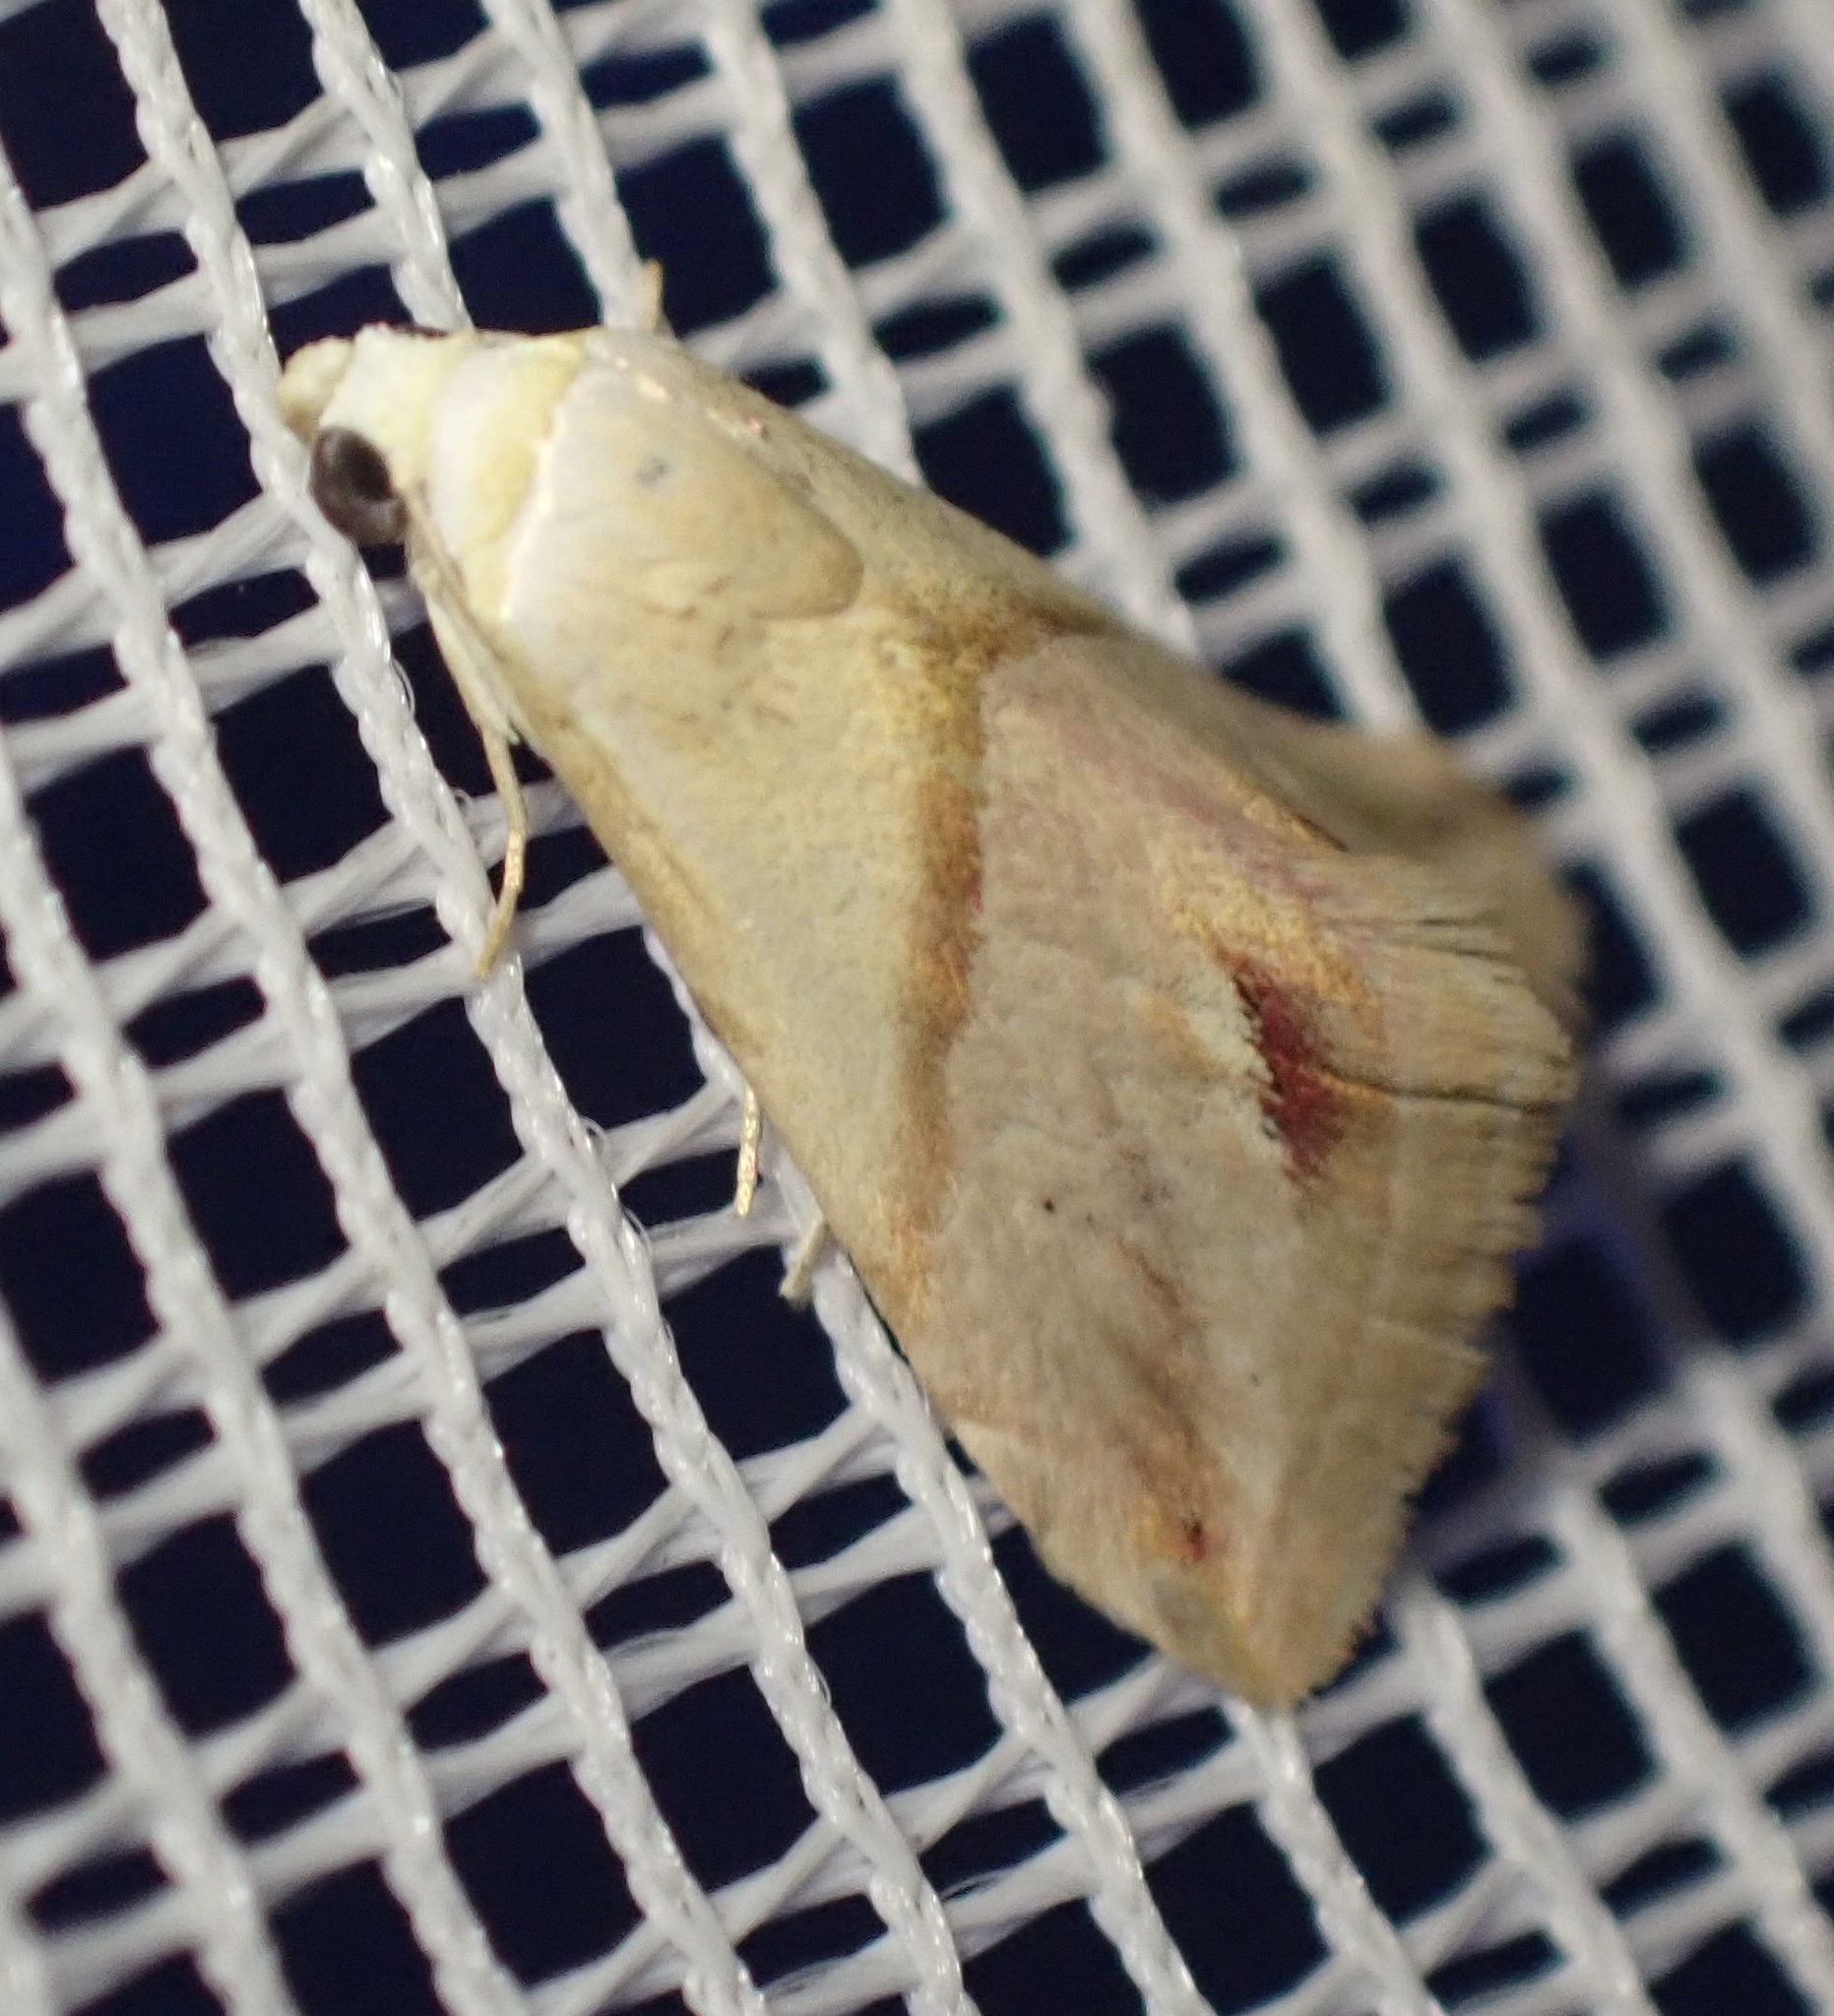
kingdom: Animalia
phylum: Arthropoda
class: Insecta
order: Lepidoptera
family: Noctuidae
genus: Eublemma
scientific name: Eublemma cochylioides
